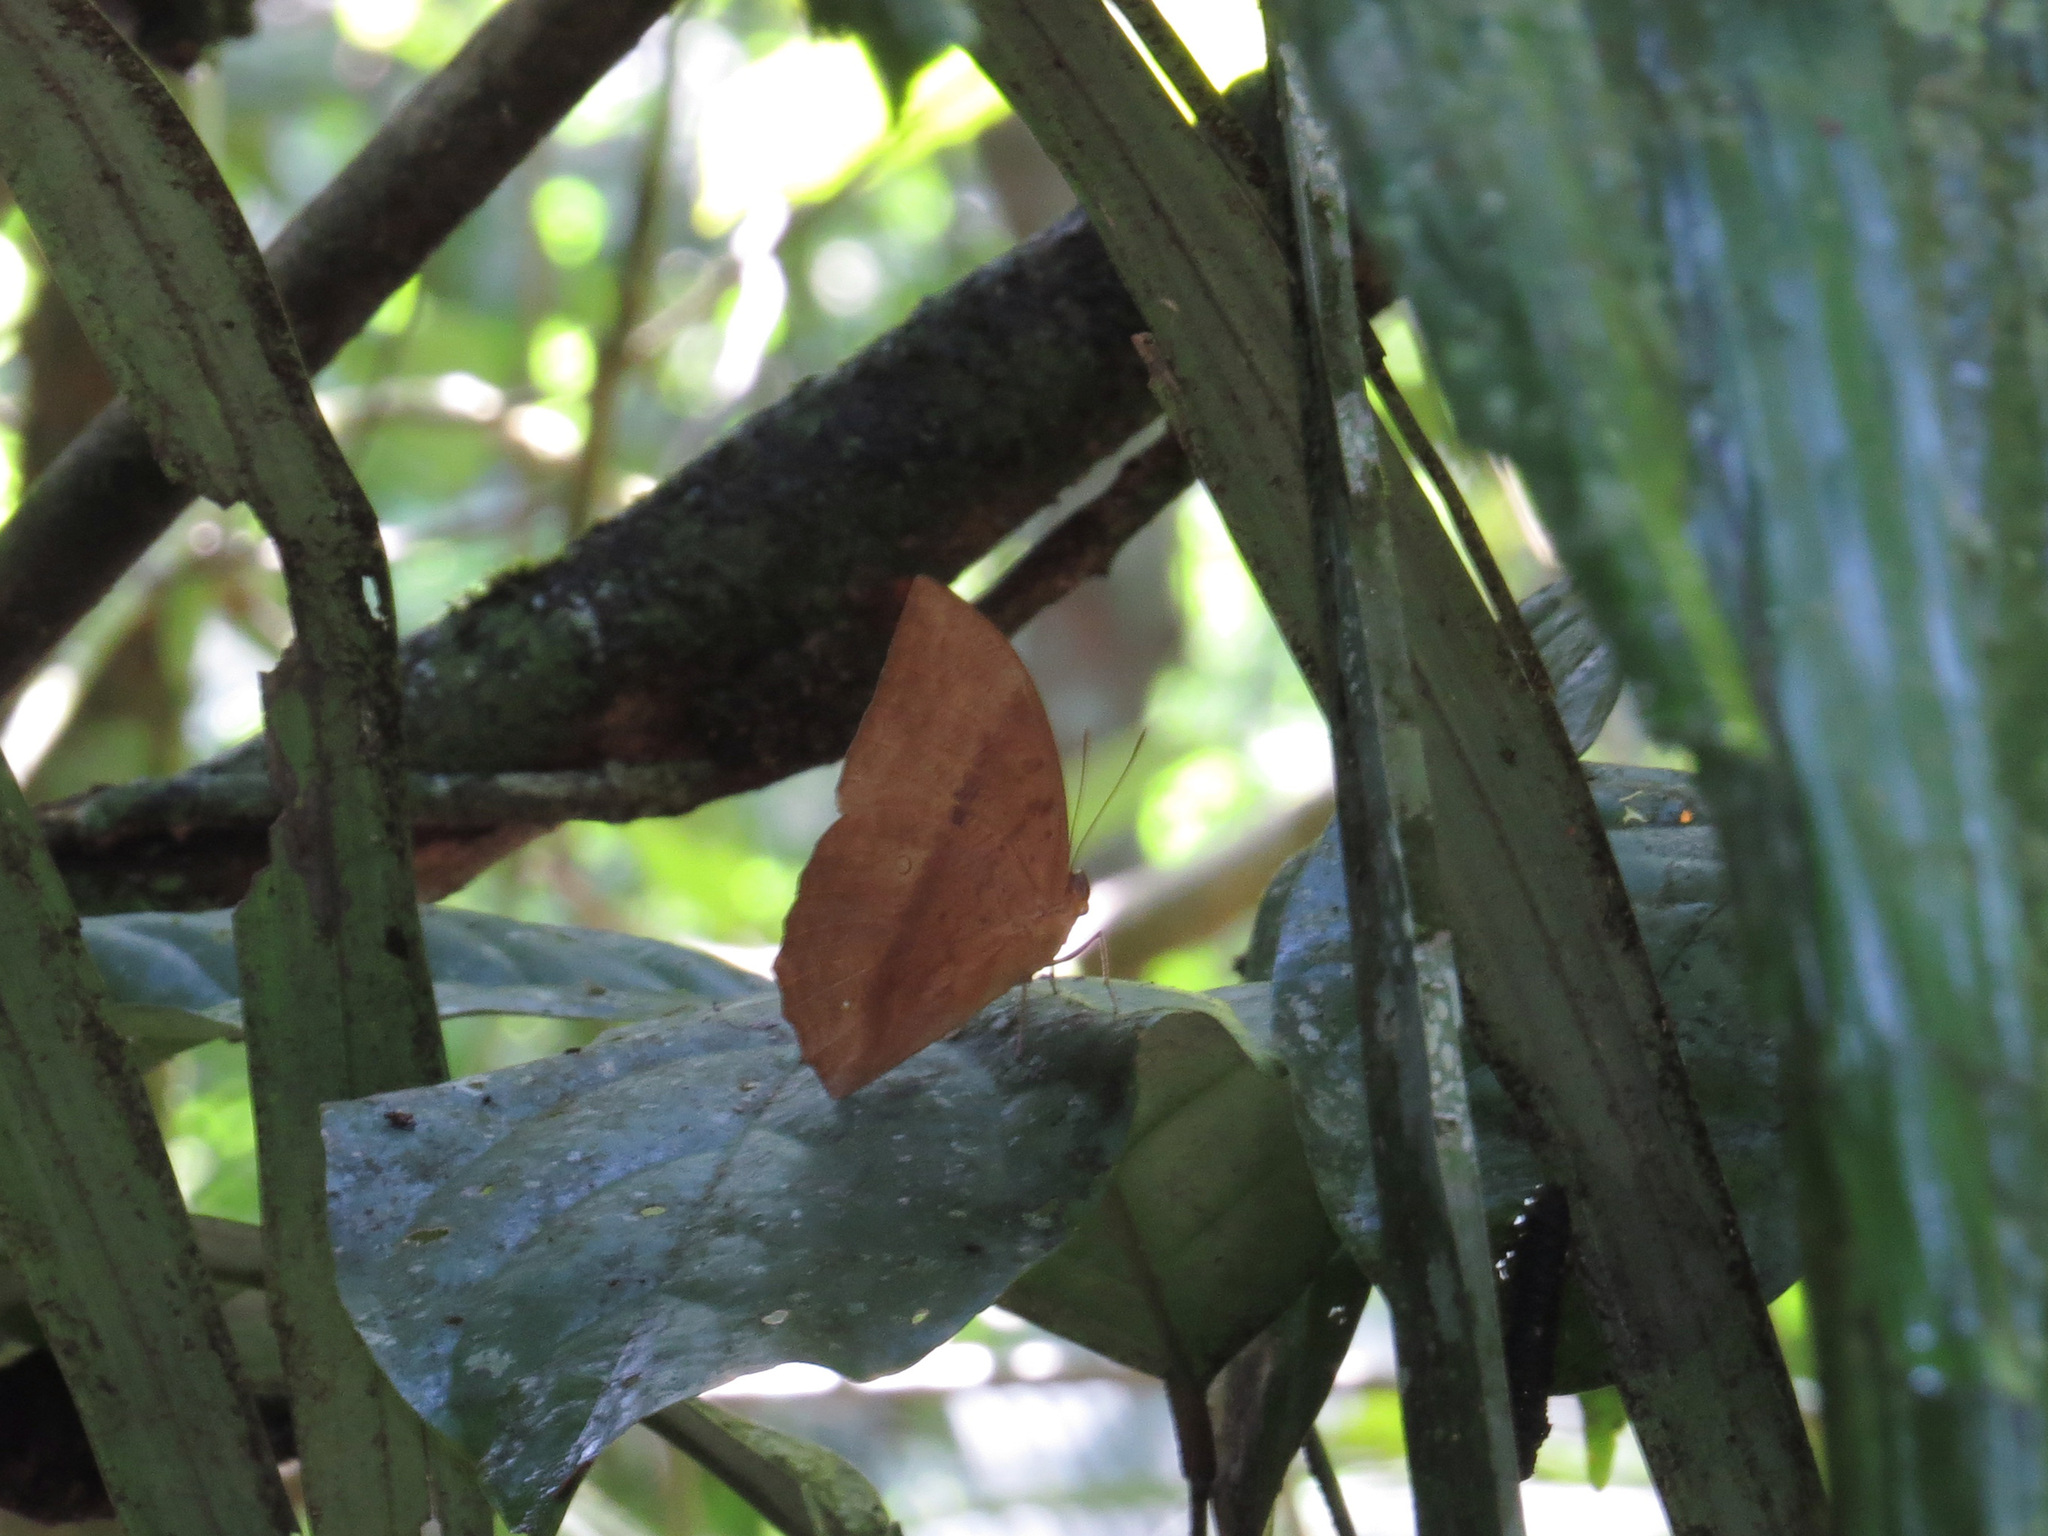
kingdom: Animalia
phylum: Arthropoda
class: Insecta
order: Lepidoptera
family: Nymphalidae
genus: Discophora
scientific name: Discophora sondaica
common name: Common duffer
